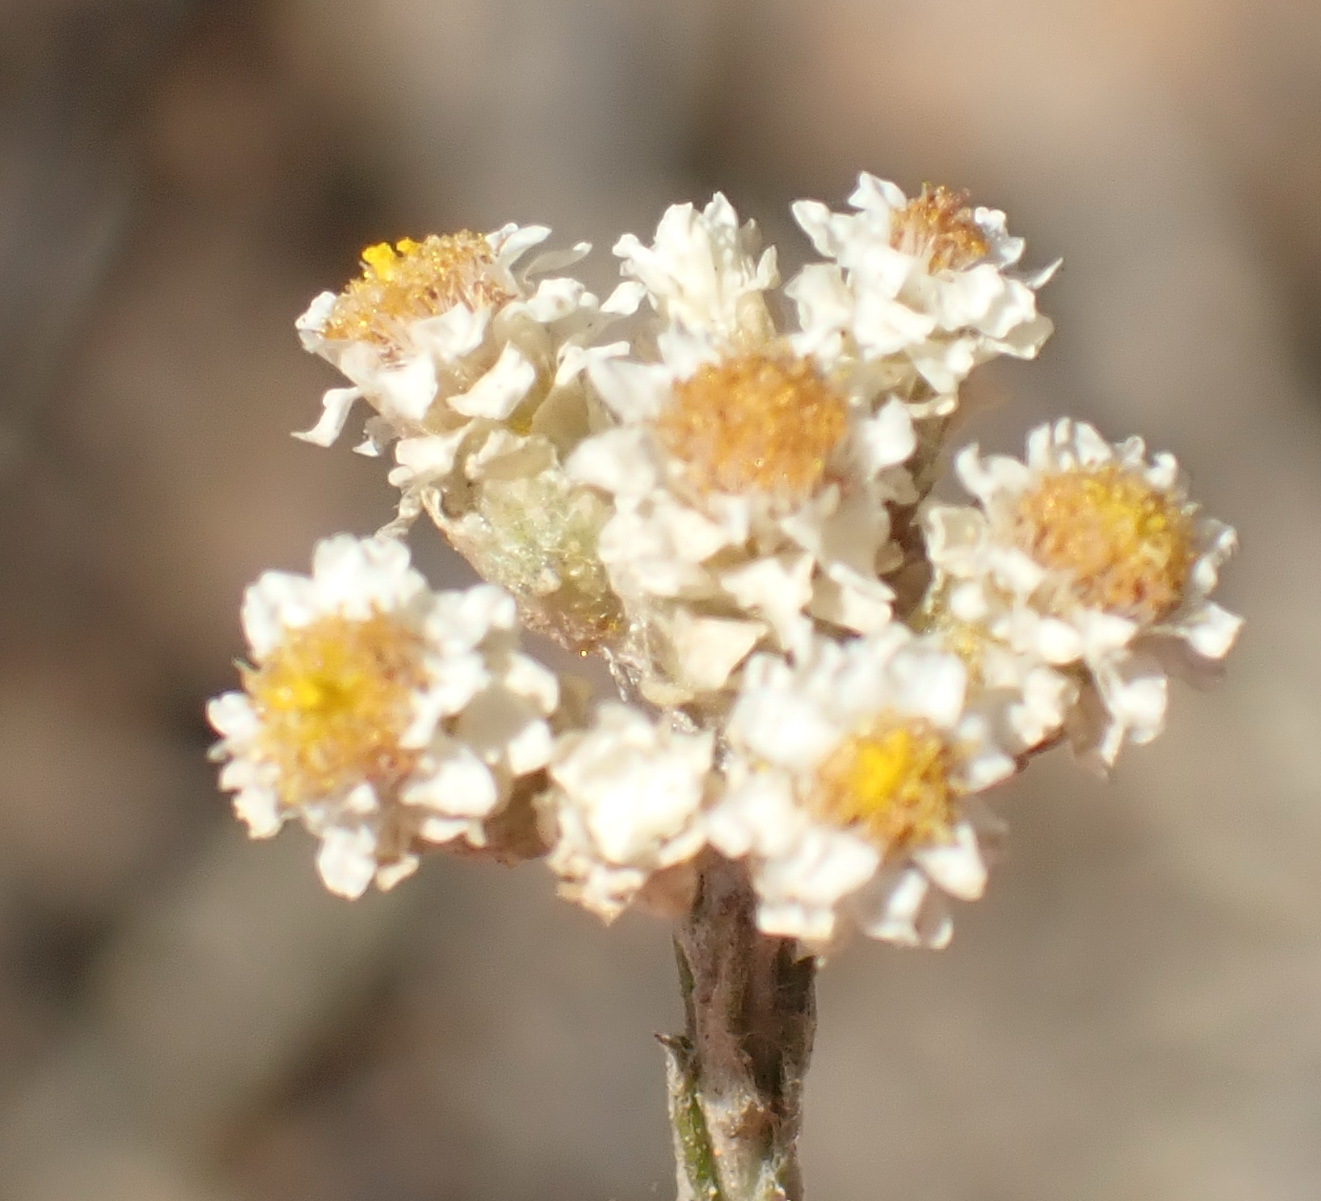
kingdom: Plantae
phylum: Tracheophyta
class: Magnoliopsida
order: Asterales
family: Asteraceae
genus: Helichrysum
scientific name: Helichrysum teretifolium
